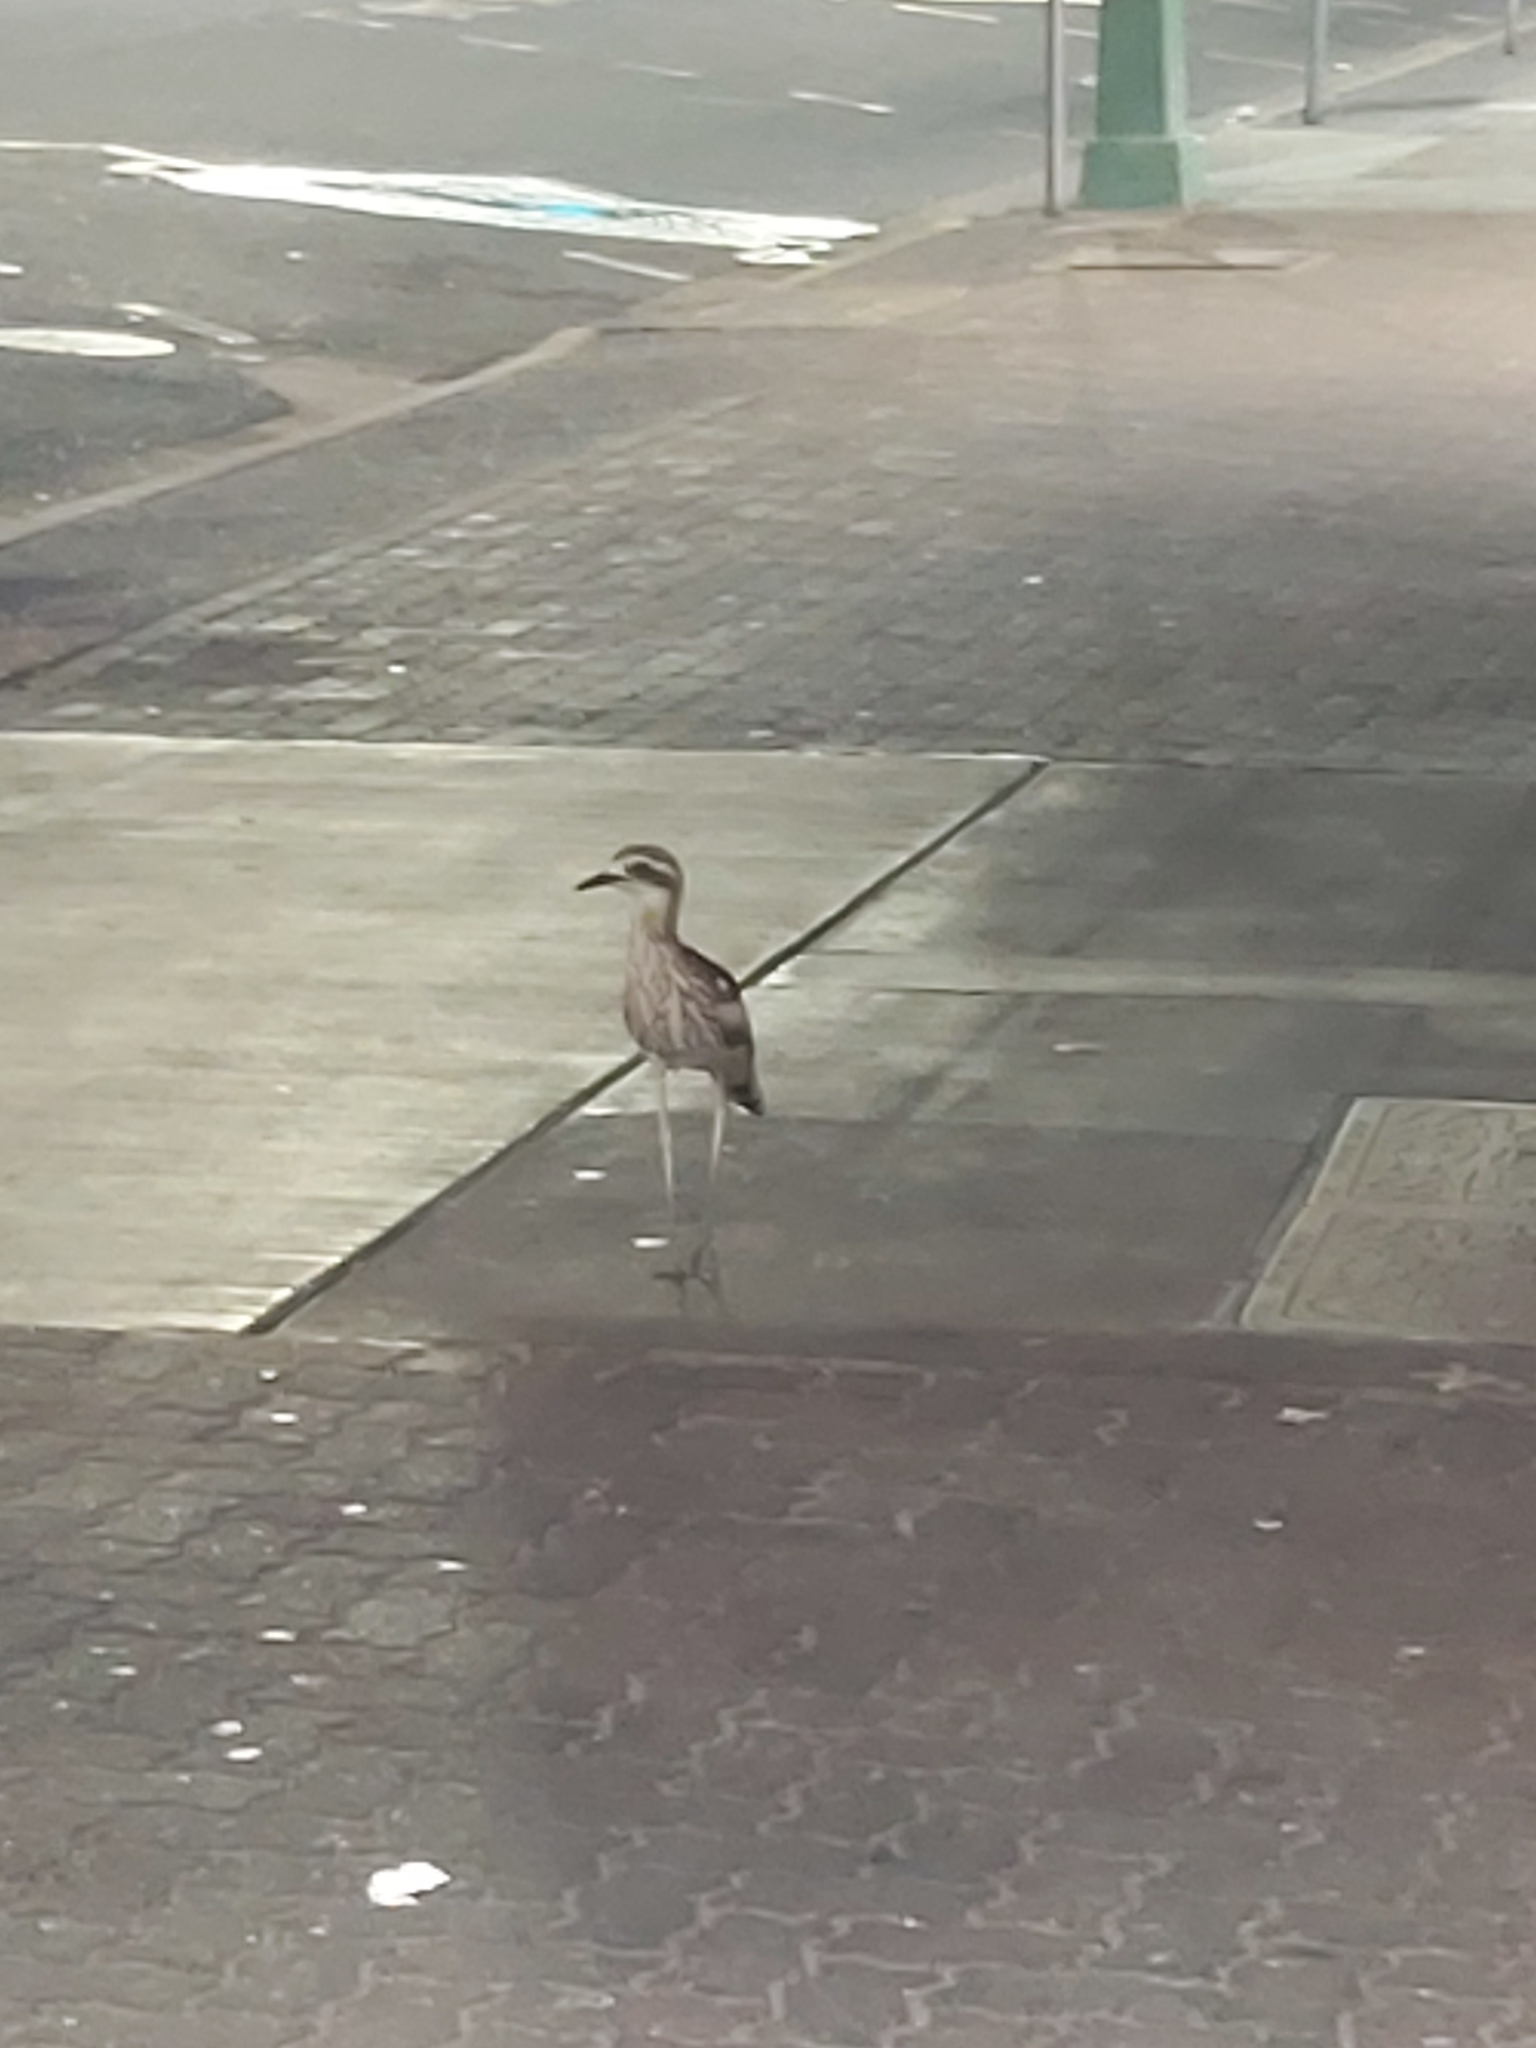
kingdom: Animalia
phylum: Chordata
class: Aves
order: Charadriiformes
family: Burhinidae
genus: Burhinus
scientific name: Burhinus grallarius
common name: Bush stone-curlew
